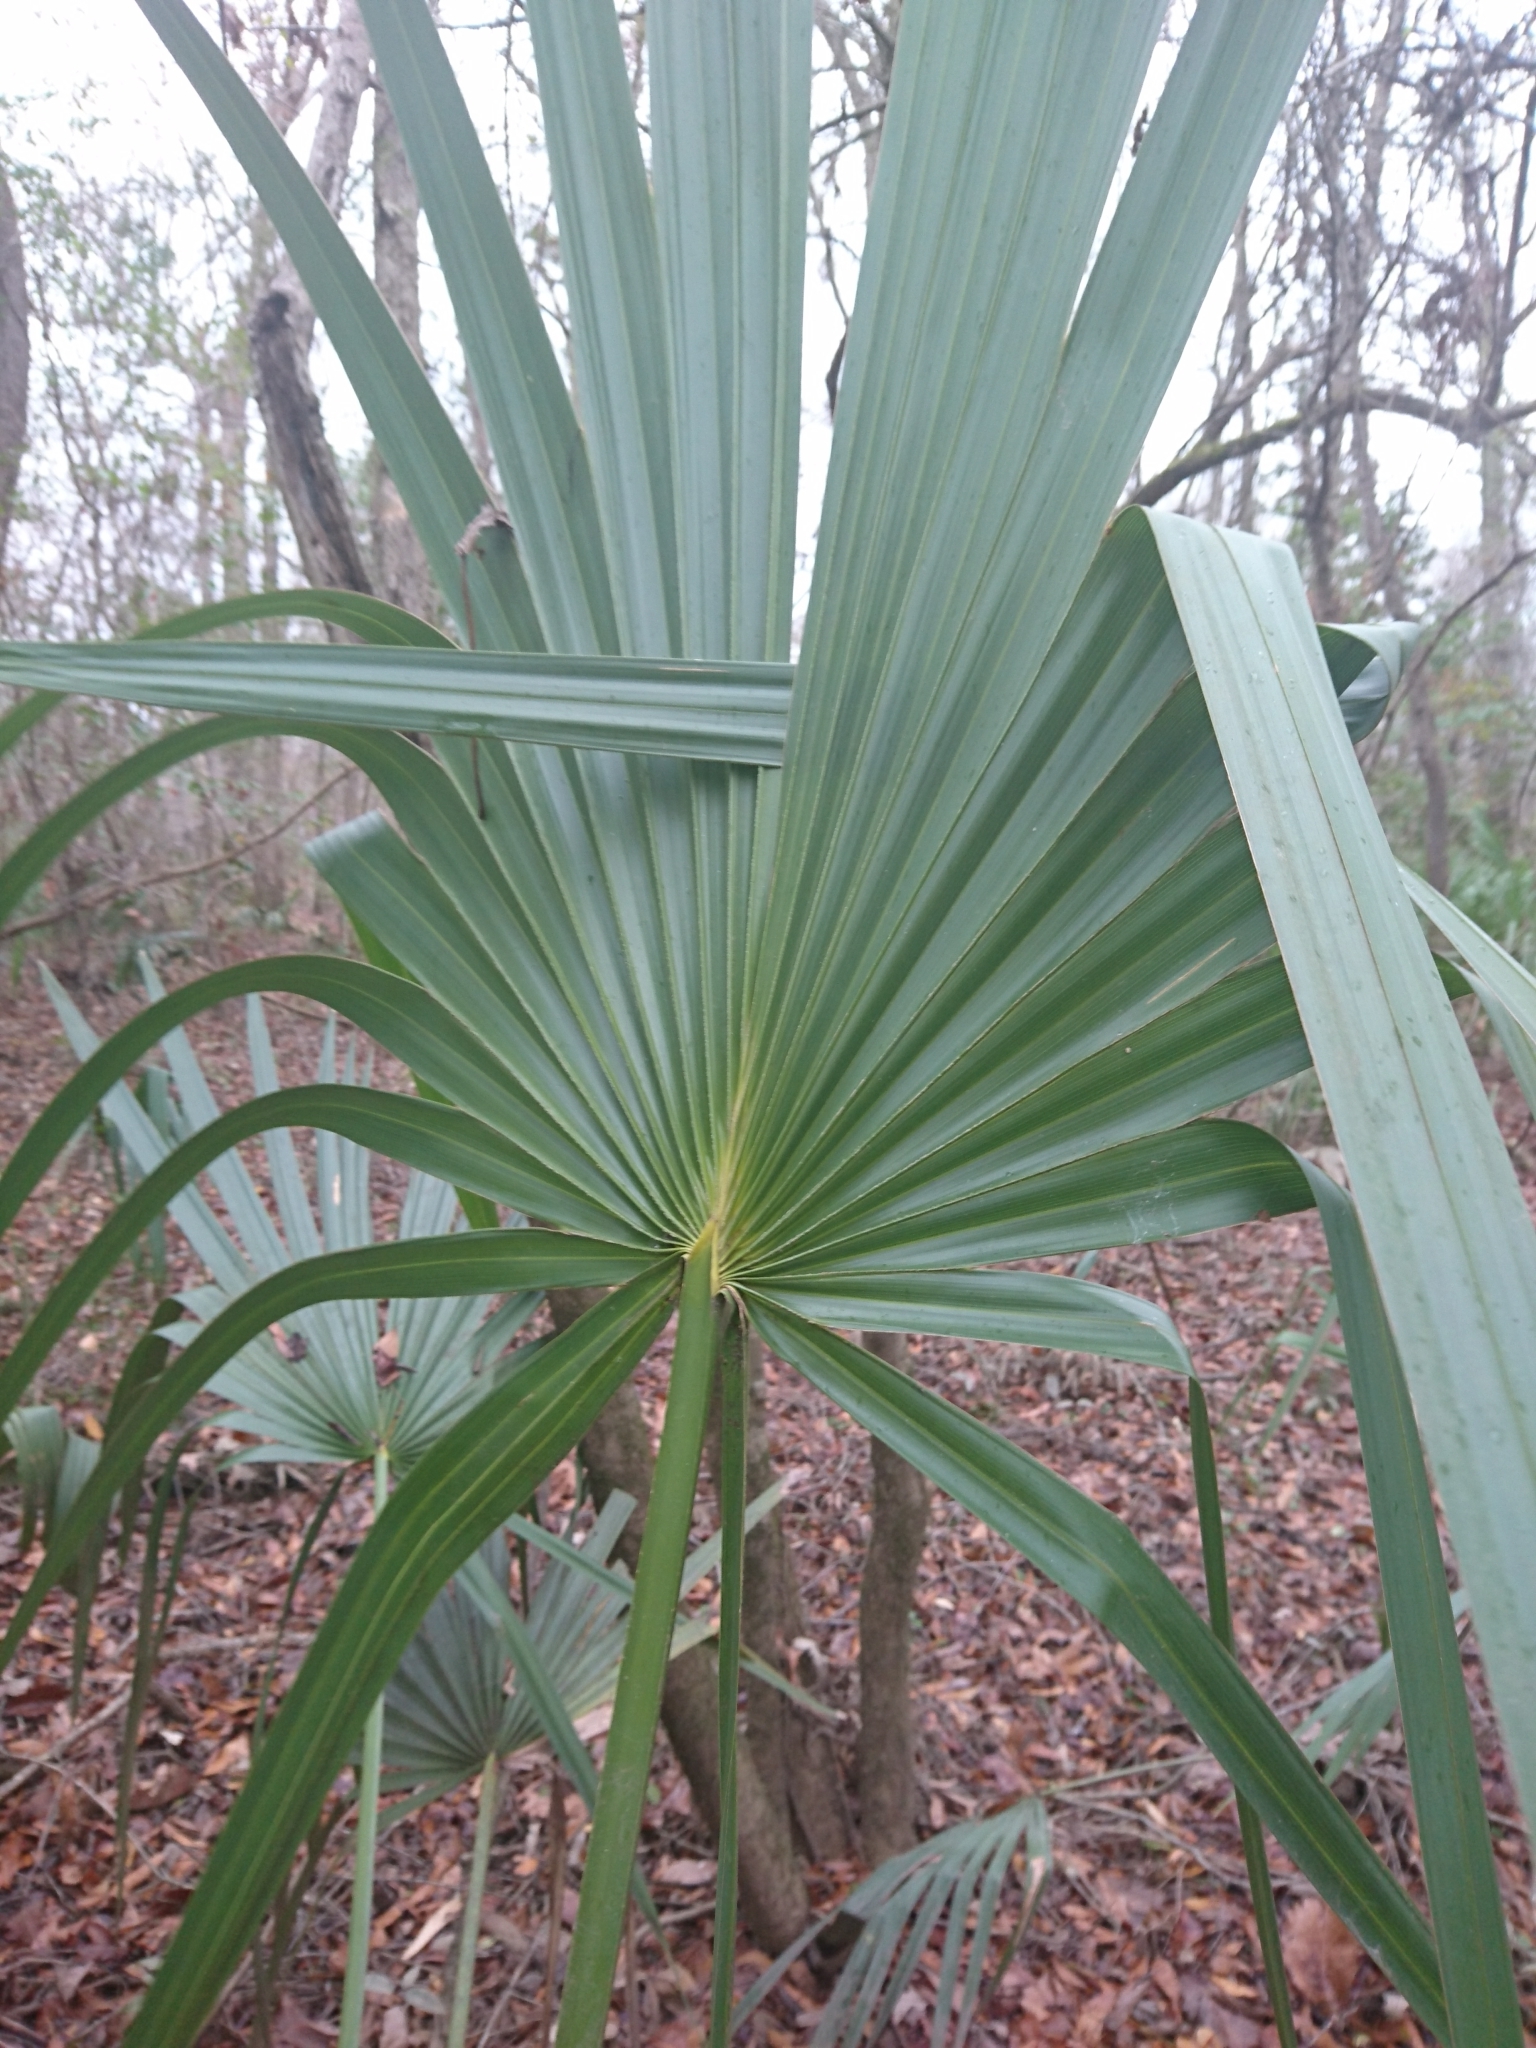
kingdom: Plantae
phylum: Tracheophyta
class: Liliopsida
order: Arecales
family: Arecaceae
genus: Sabal
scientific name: Sabal minor
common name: Dwarf palmetto
